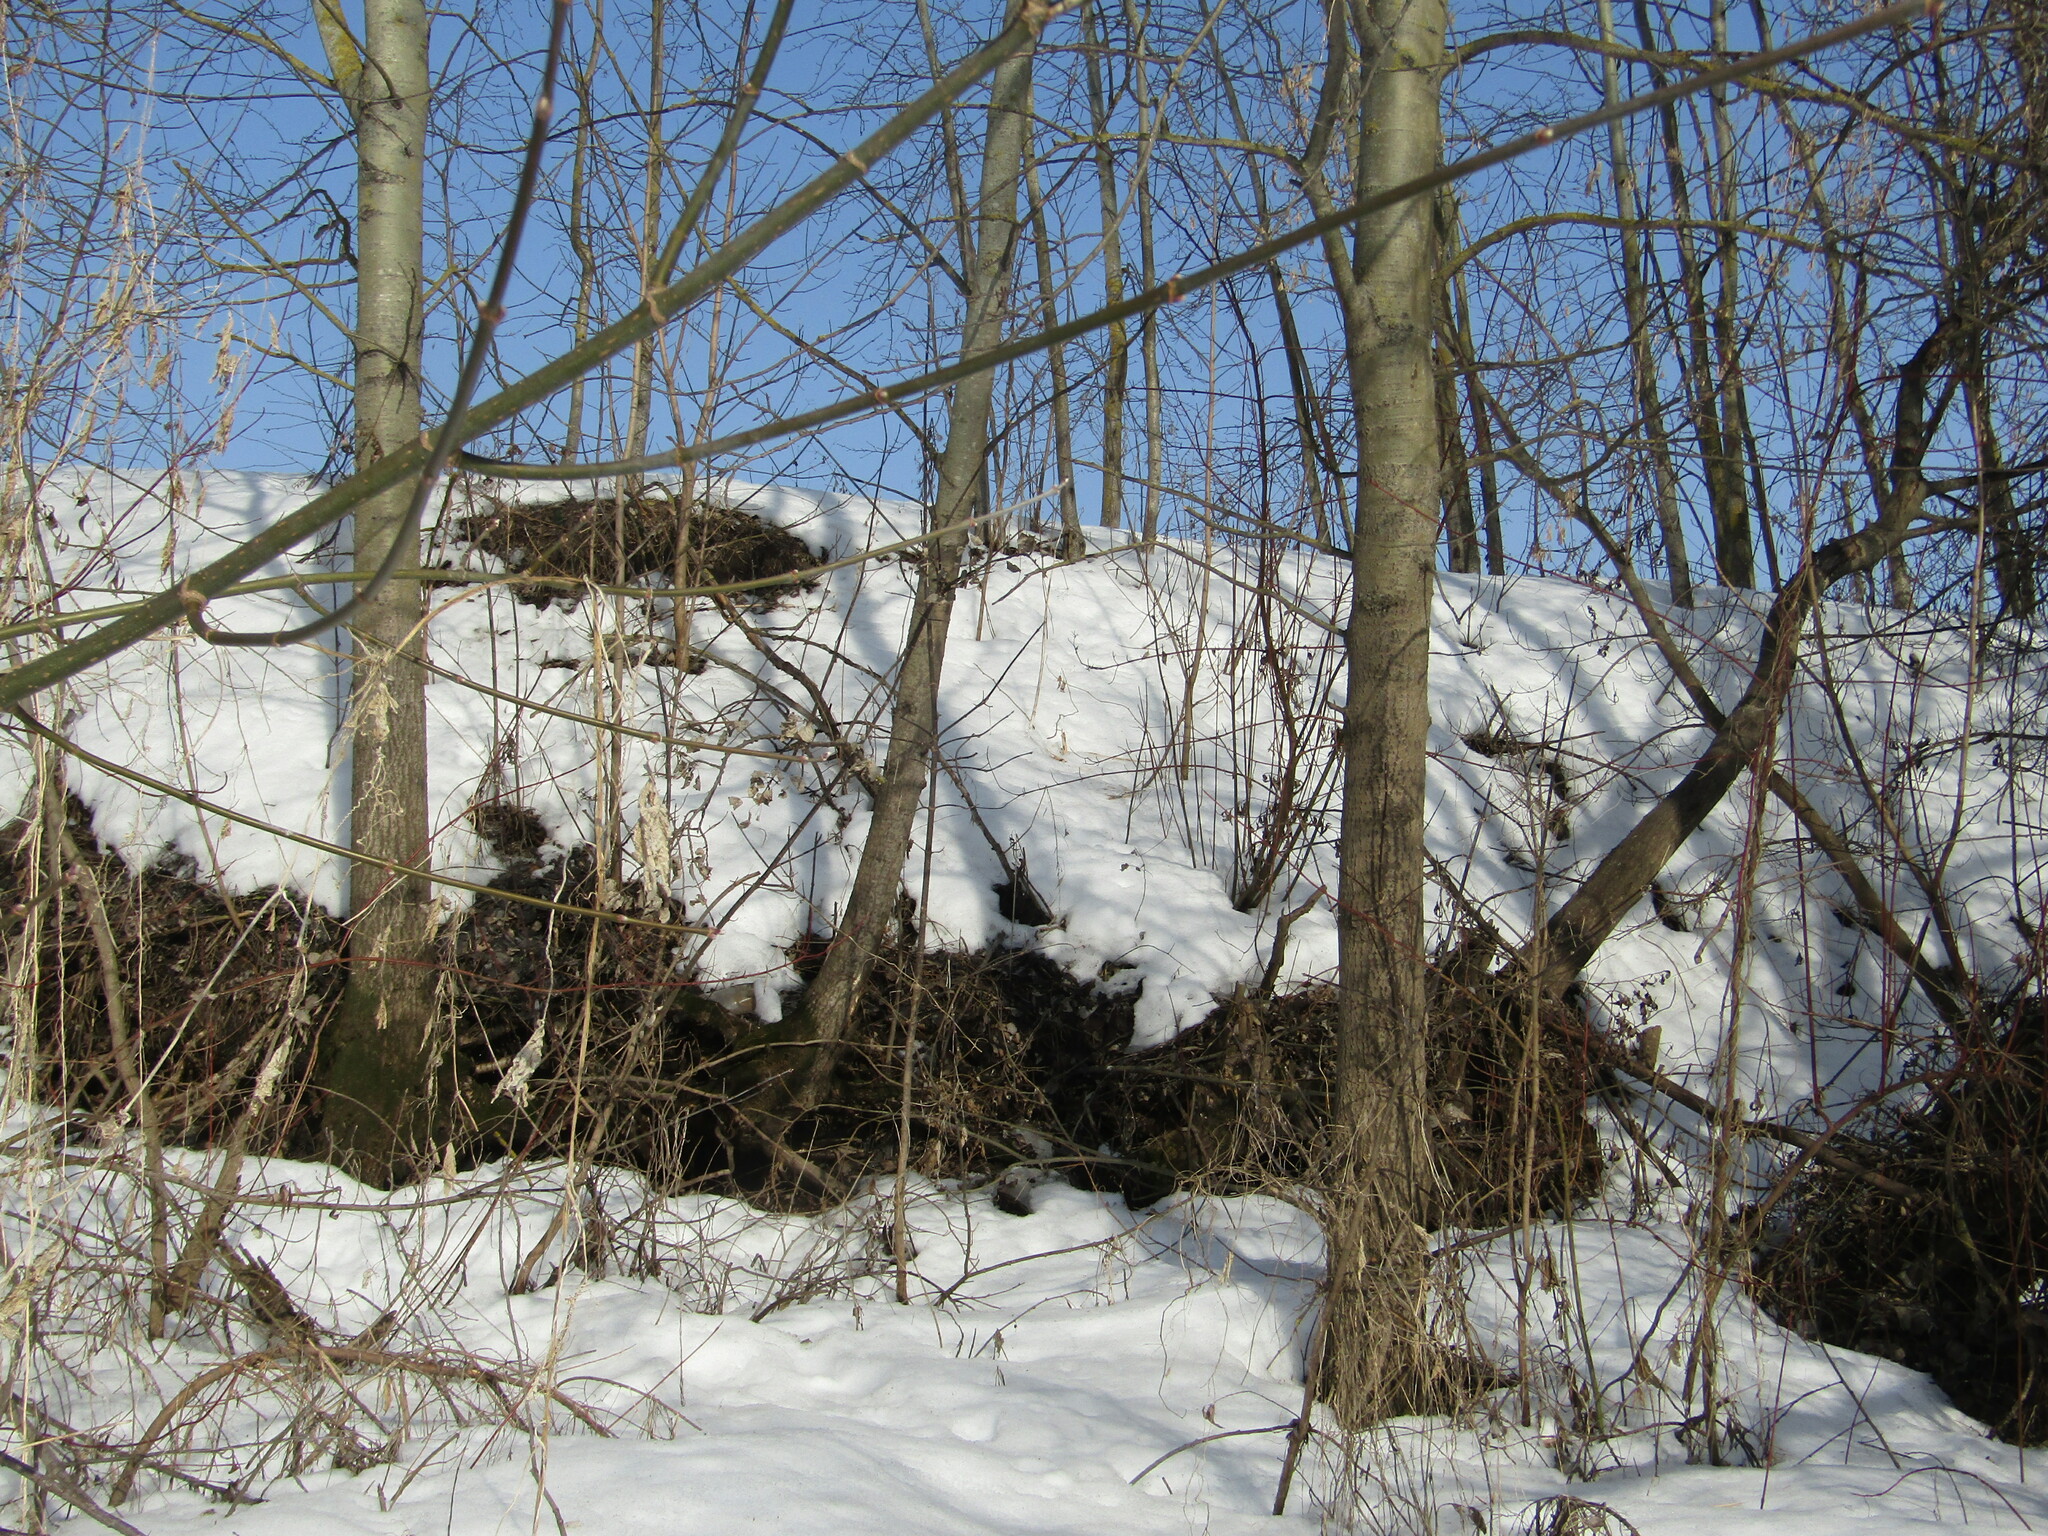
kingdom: Plantae
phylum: Tracheophyta
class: Magnoliopsida
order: Malpighiales
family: Salicaceae
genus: Populus
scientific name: Populus tremula
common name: European aspen
